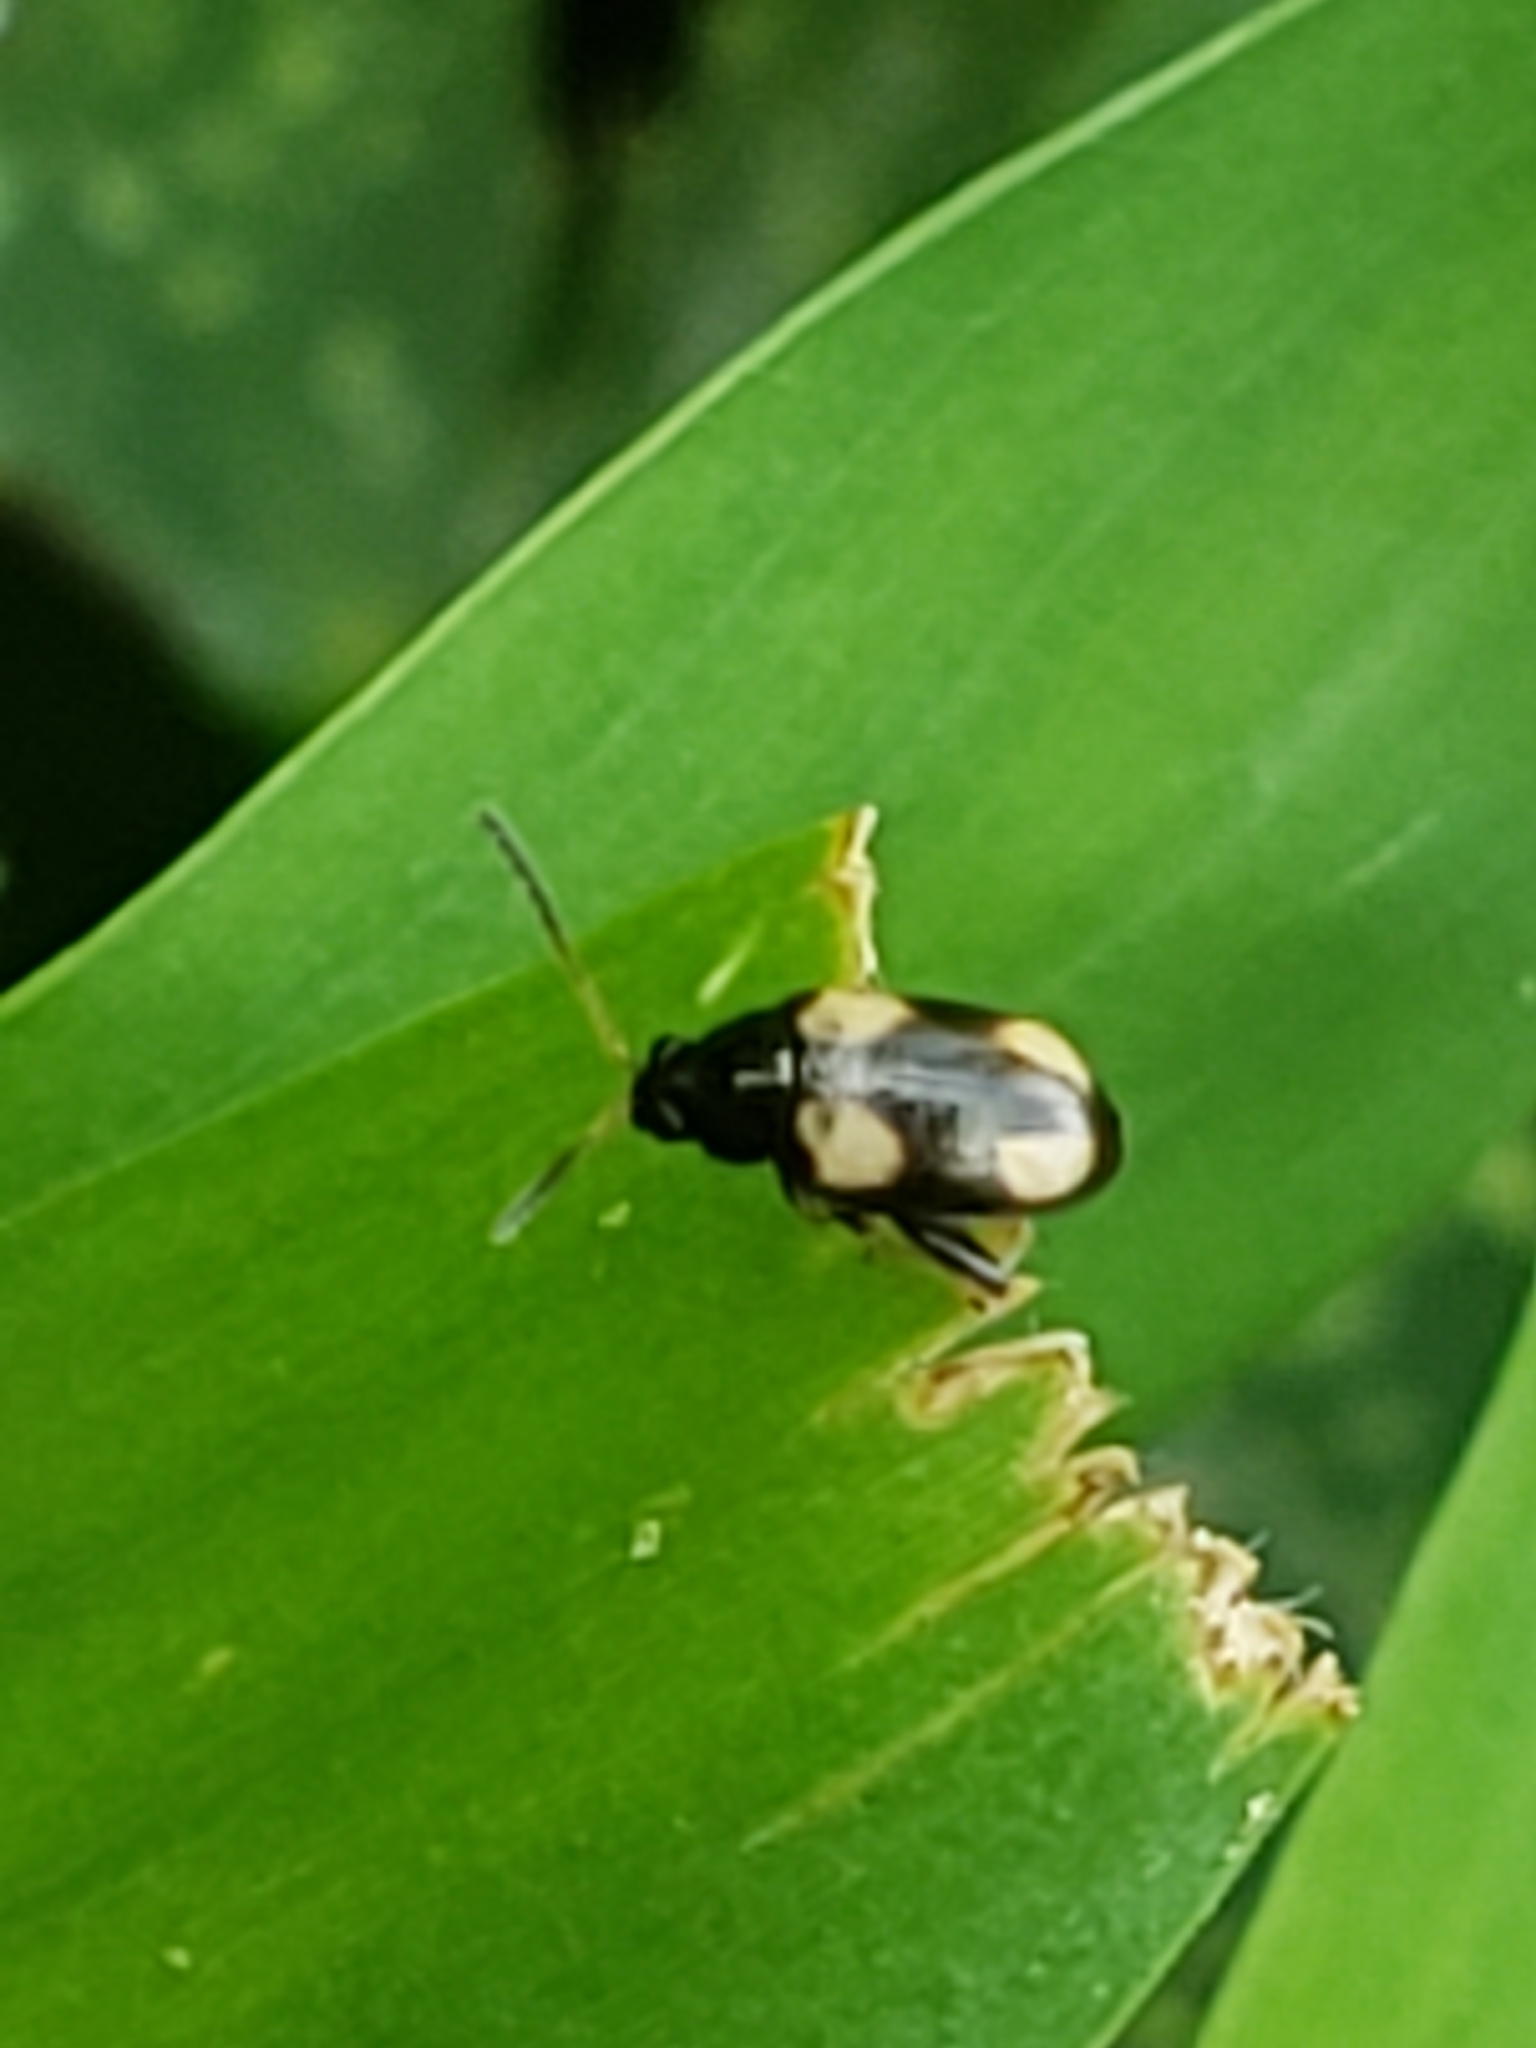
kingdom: Animalia
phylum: Arthropoda
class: Insecta
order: Coleoptera
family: Chrysomelidae
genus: Phyllotreta
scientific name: Phyllotreta bipustulata
